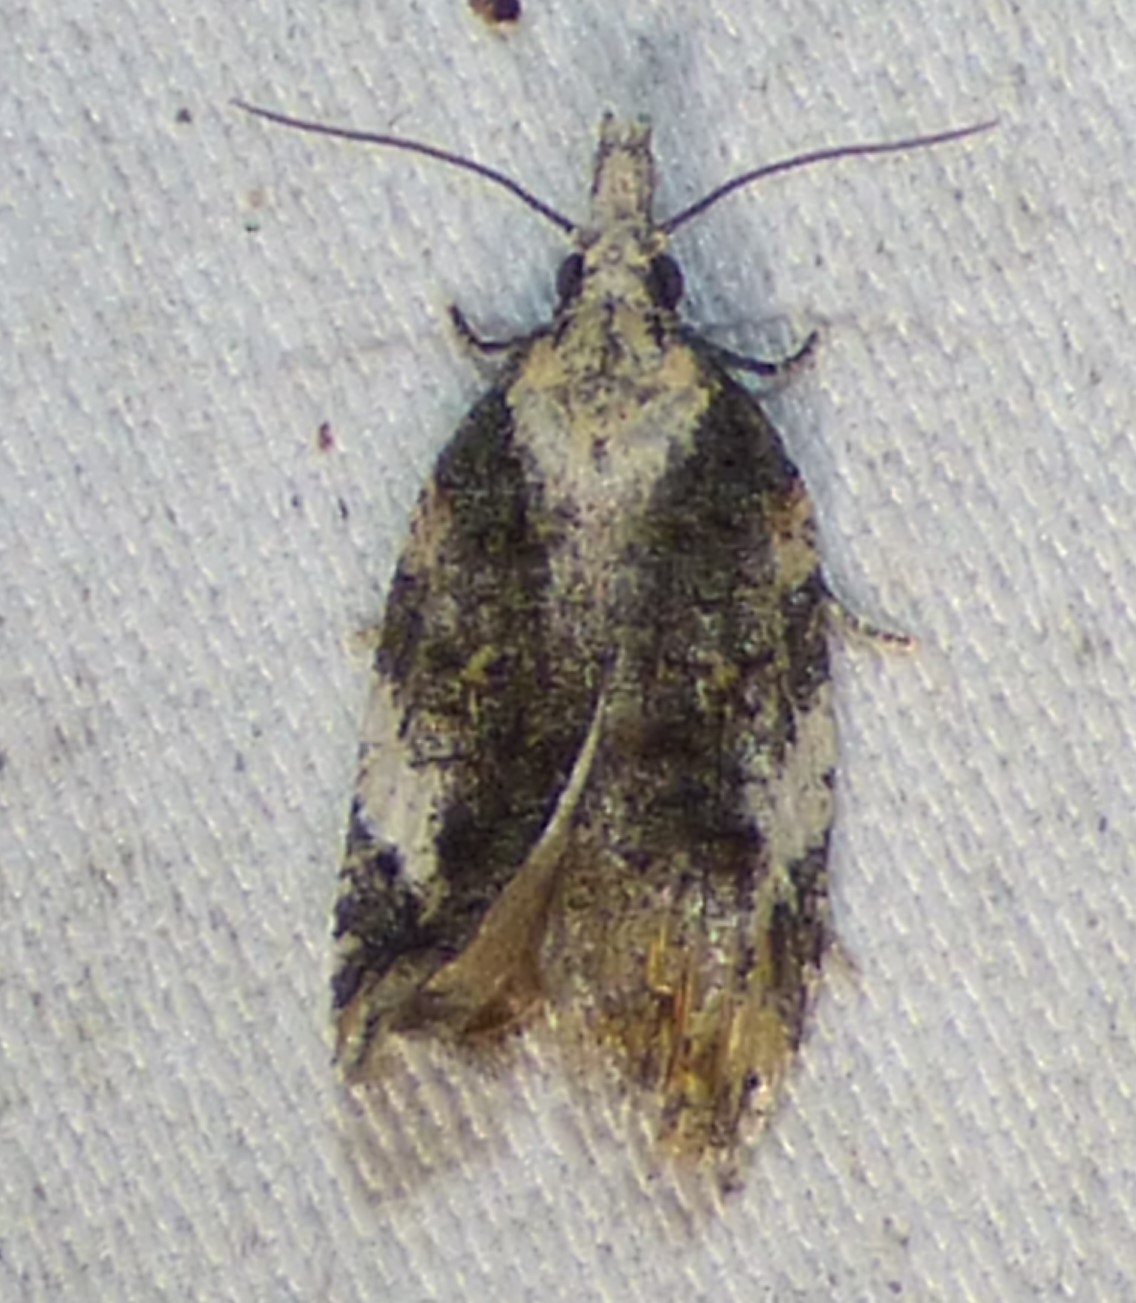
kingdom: Animalia
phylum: Arthropoda
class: Insecta
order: Lepidoptera
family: Tortricidae
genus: Platynota
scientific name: Platynota exasperatana
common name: Exasperating platynota moth
